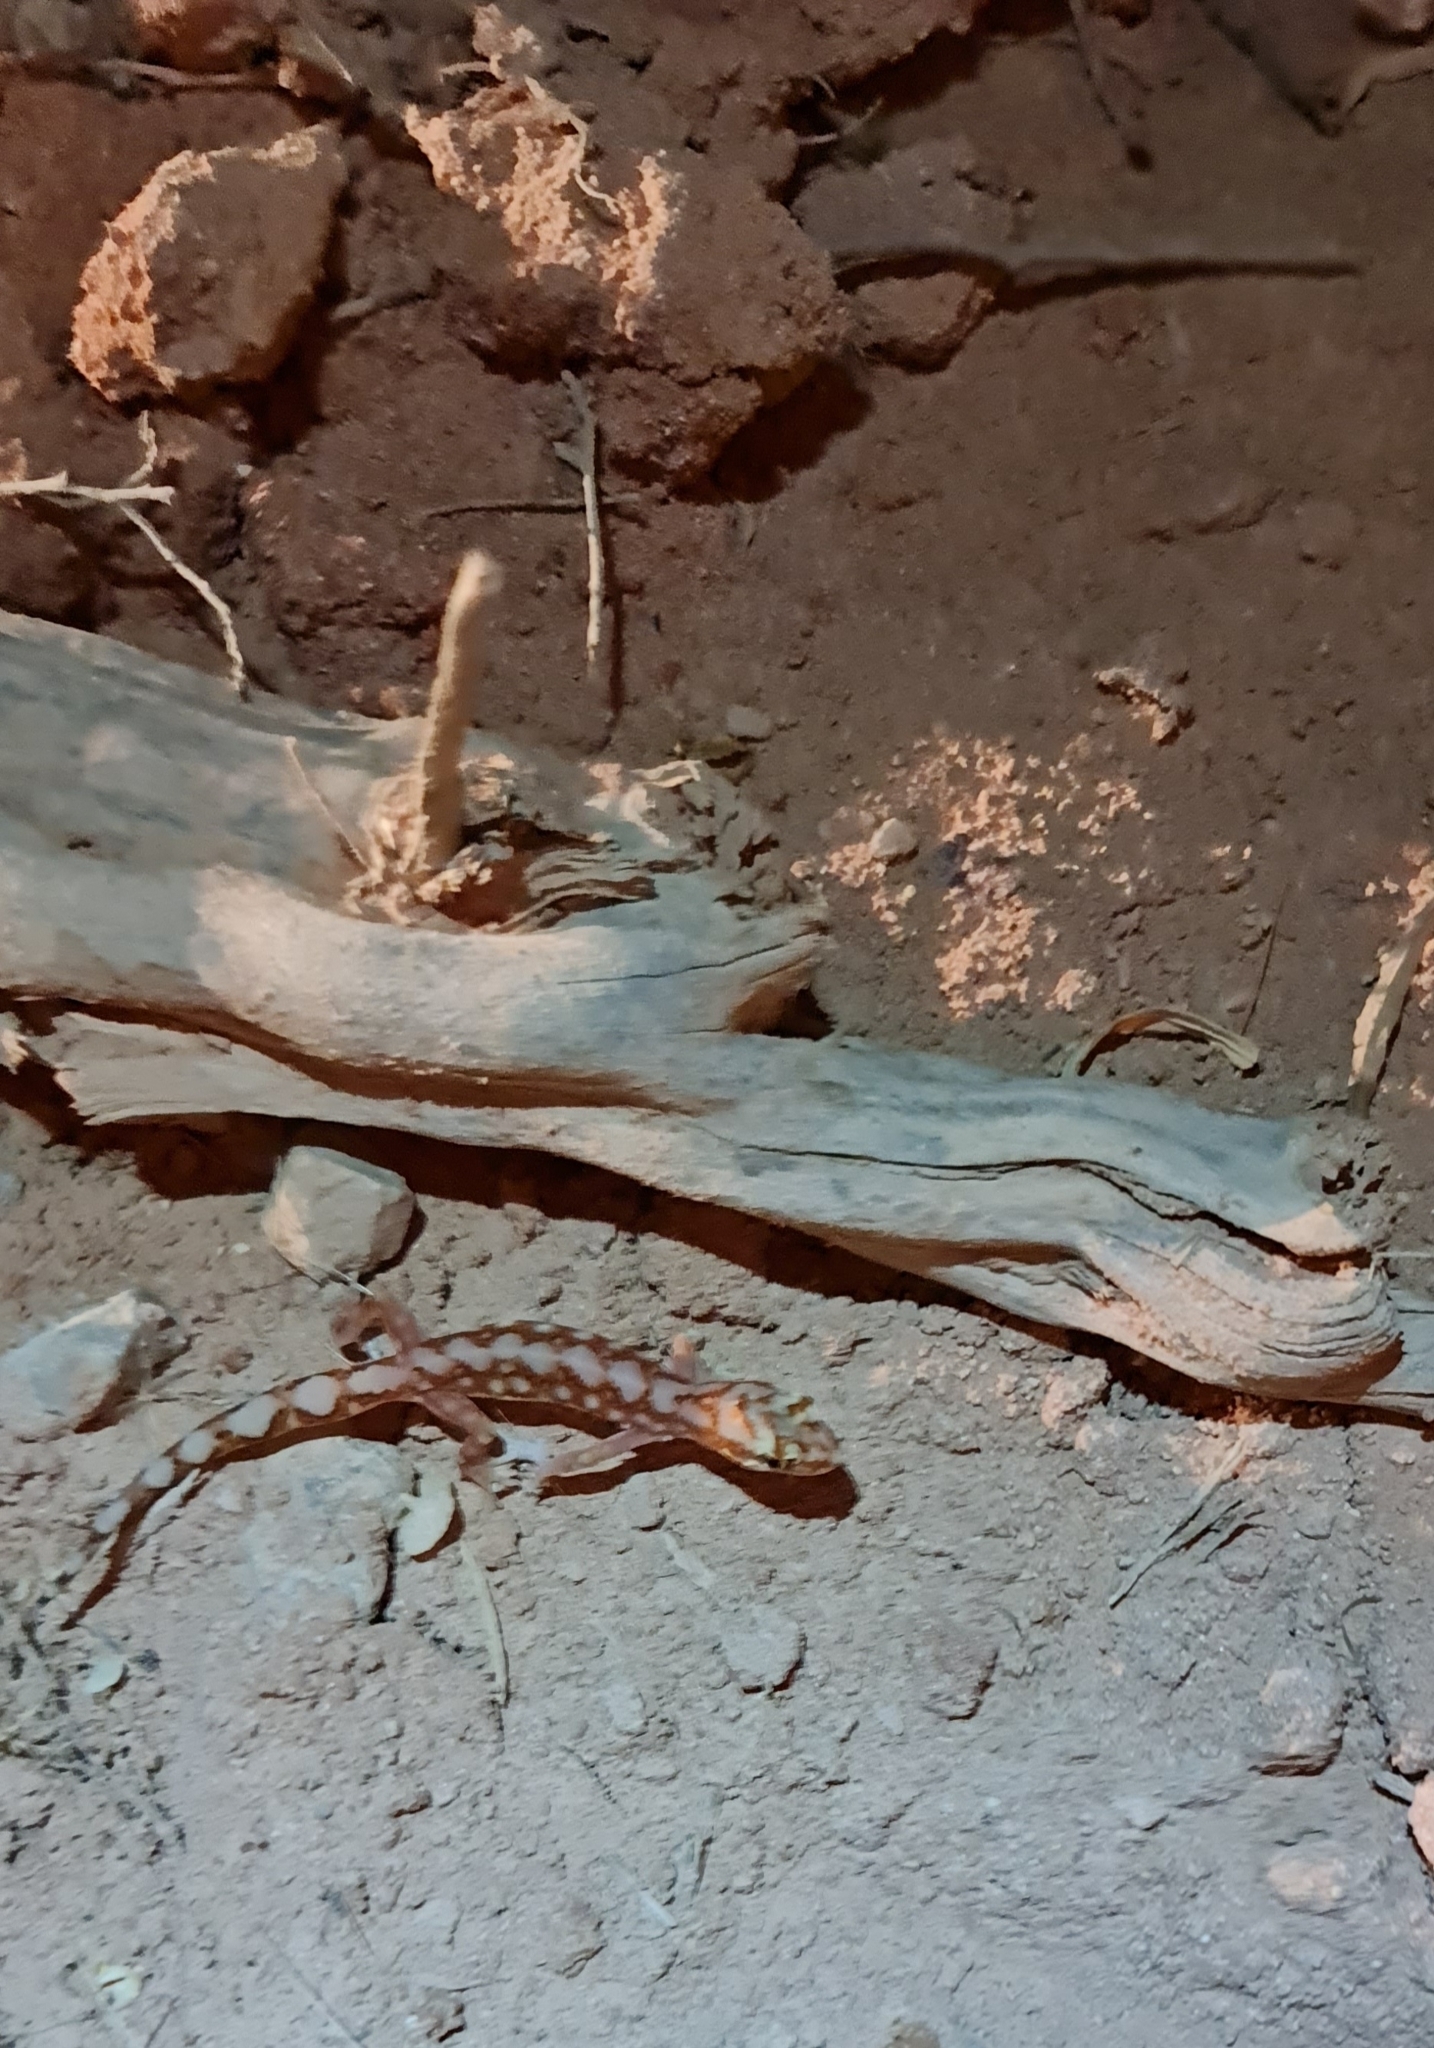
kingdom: Animalia
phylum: Chordata
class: Squamata
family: Diplodactylidae
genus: Lucasium
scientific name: Lucasium damaeum
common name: Beaded gecko
